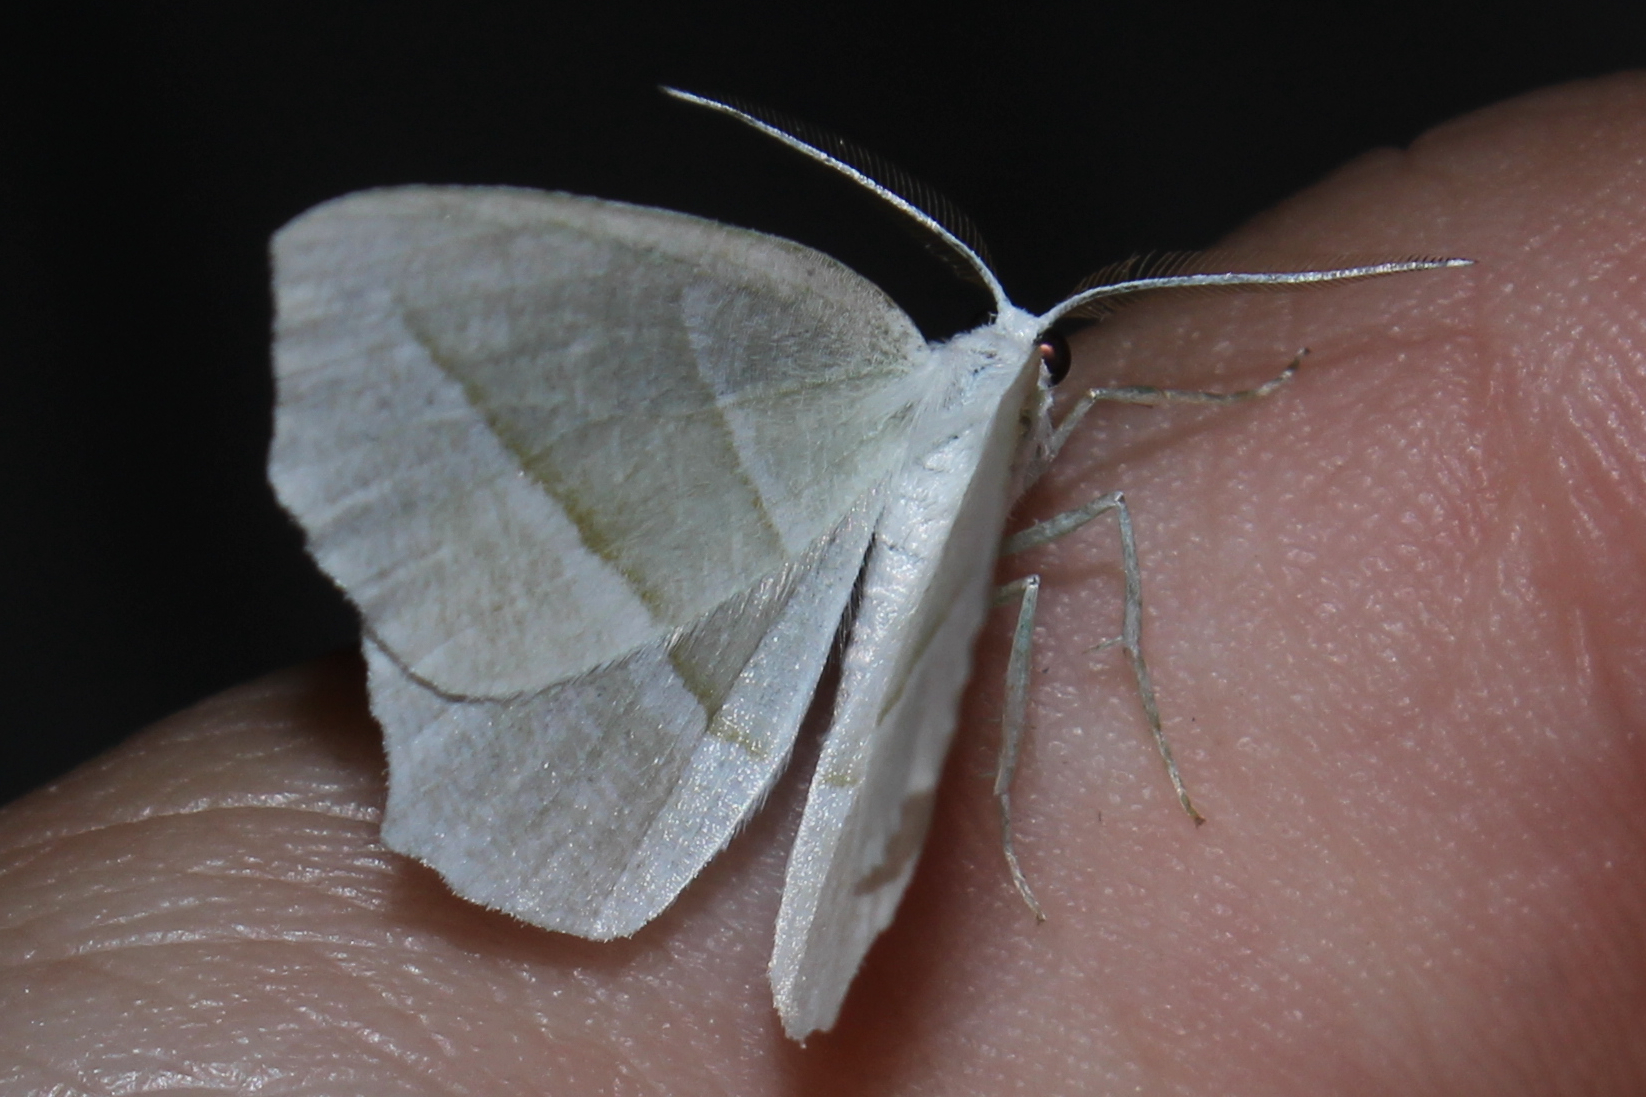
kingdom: Animalia
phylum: Arthropoda
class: Insecta
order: Lepidoptera
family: Geometridae
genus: Campaea
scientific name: Campaea perlata
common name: Fringed looper
